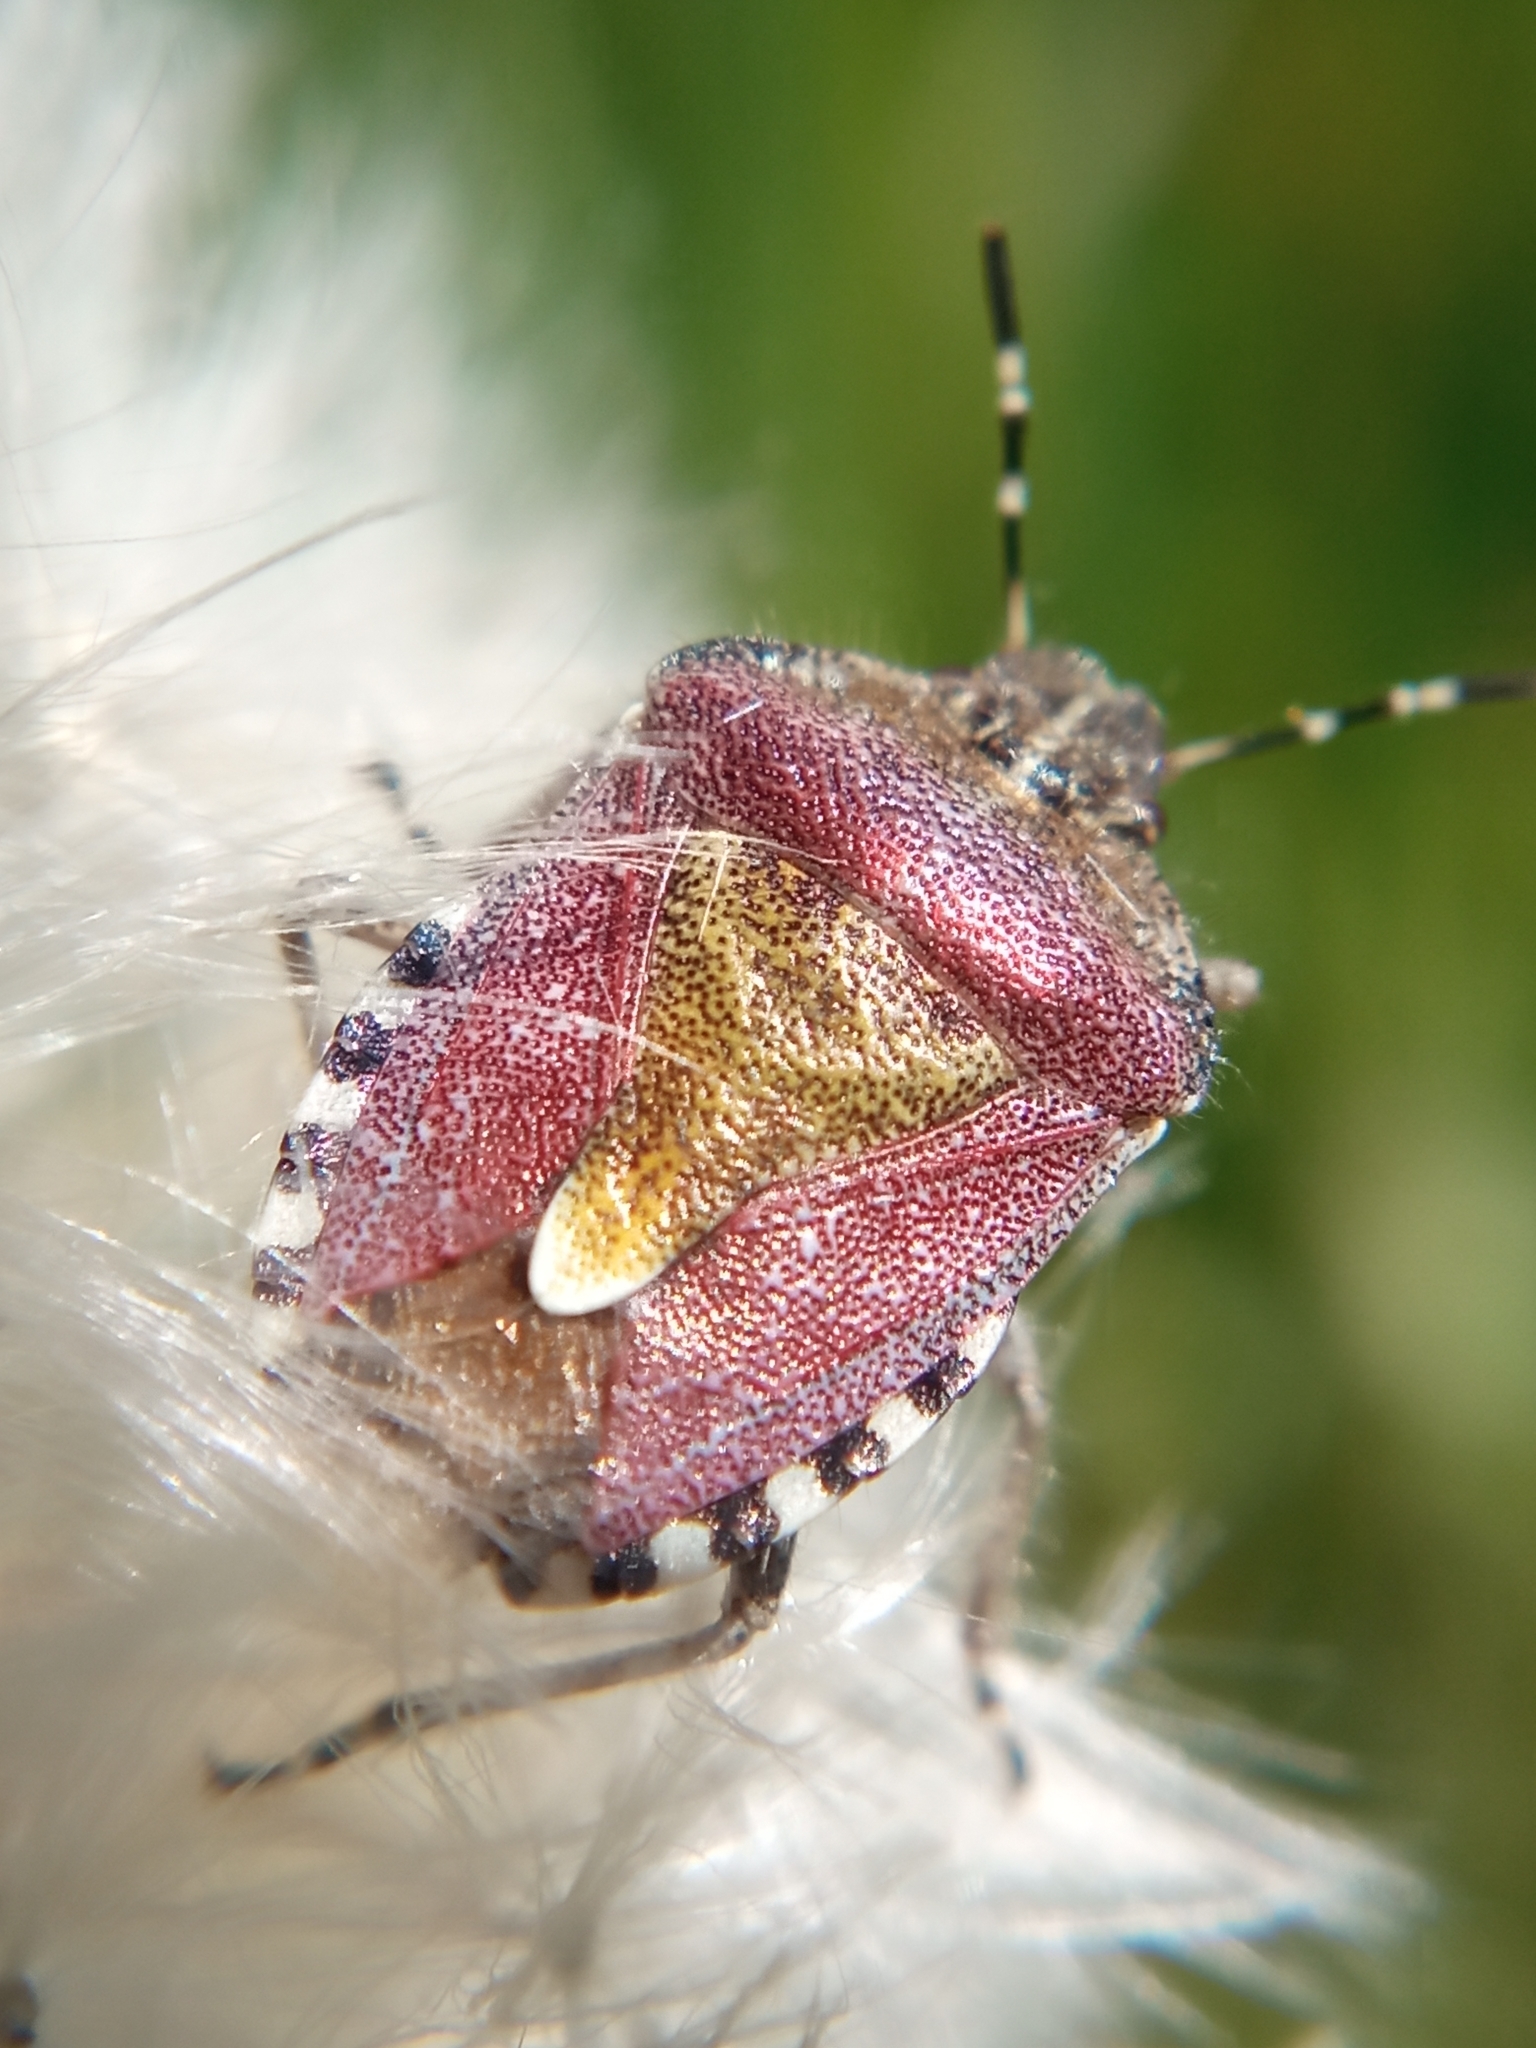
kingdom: Animalia
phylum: Arthropoda
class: Insecta
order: Hemiptera
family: Pentatomidae
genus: Dolycoris
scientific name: Dolycoris baccarum
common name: Sloe bug
